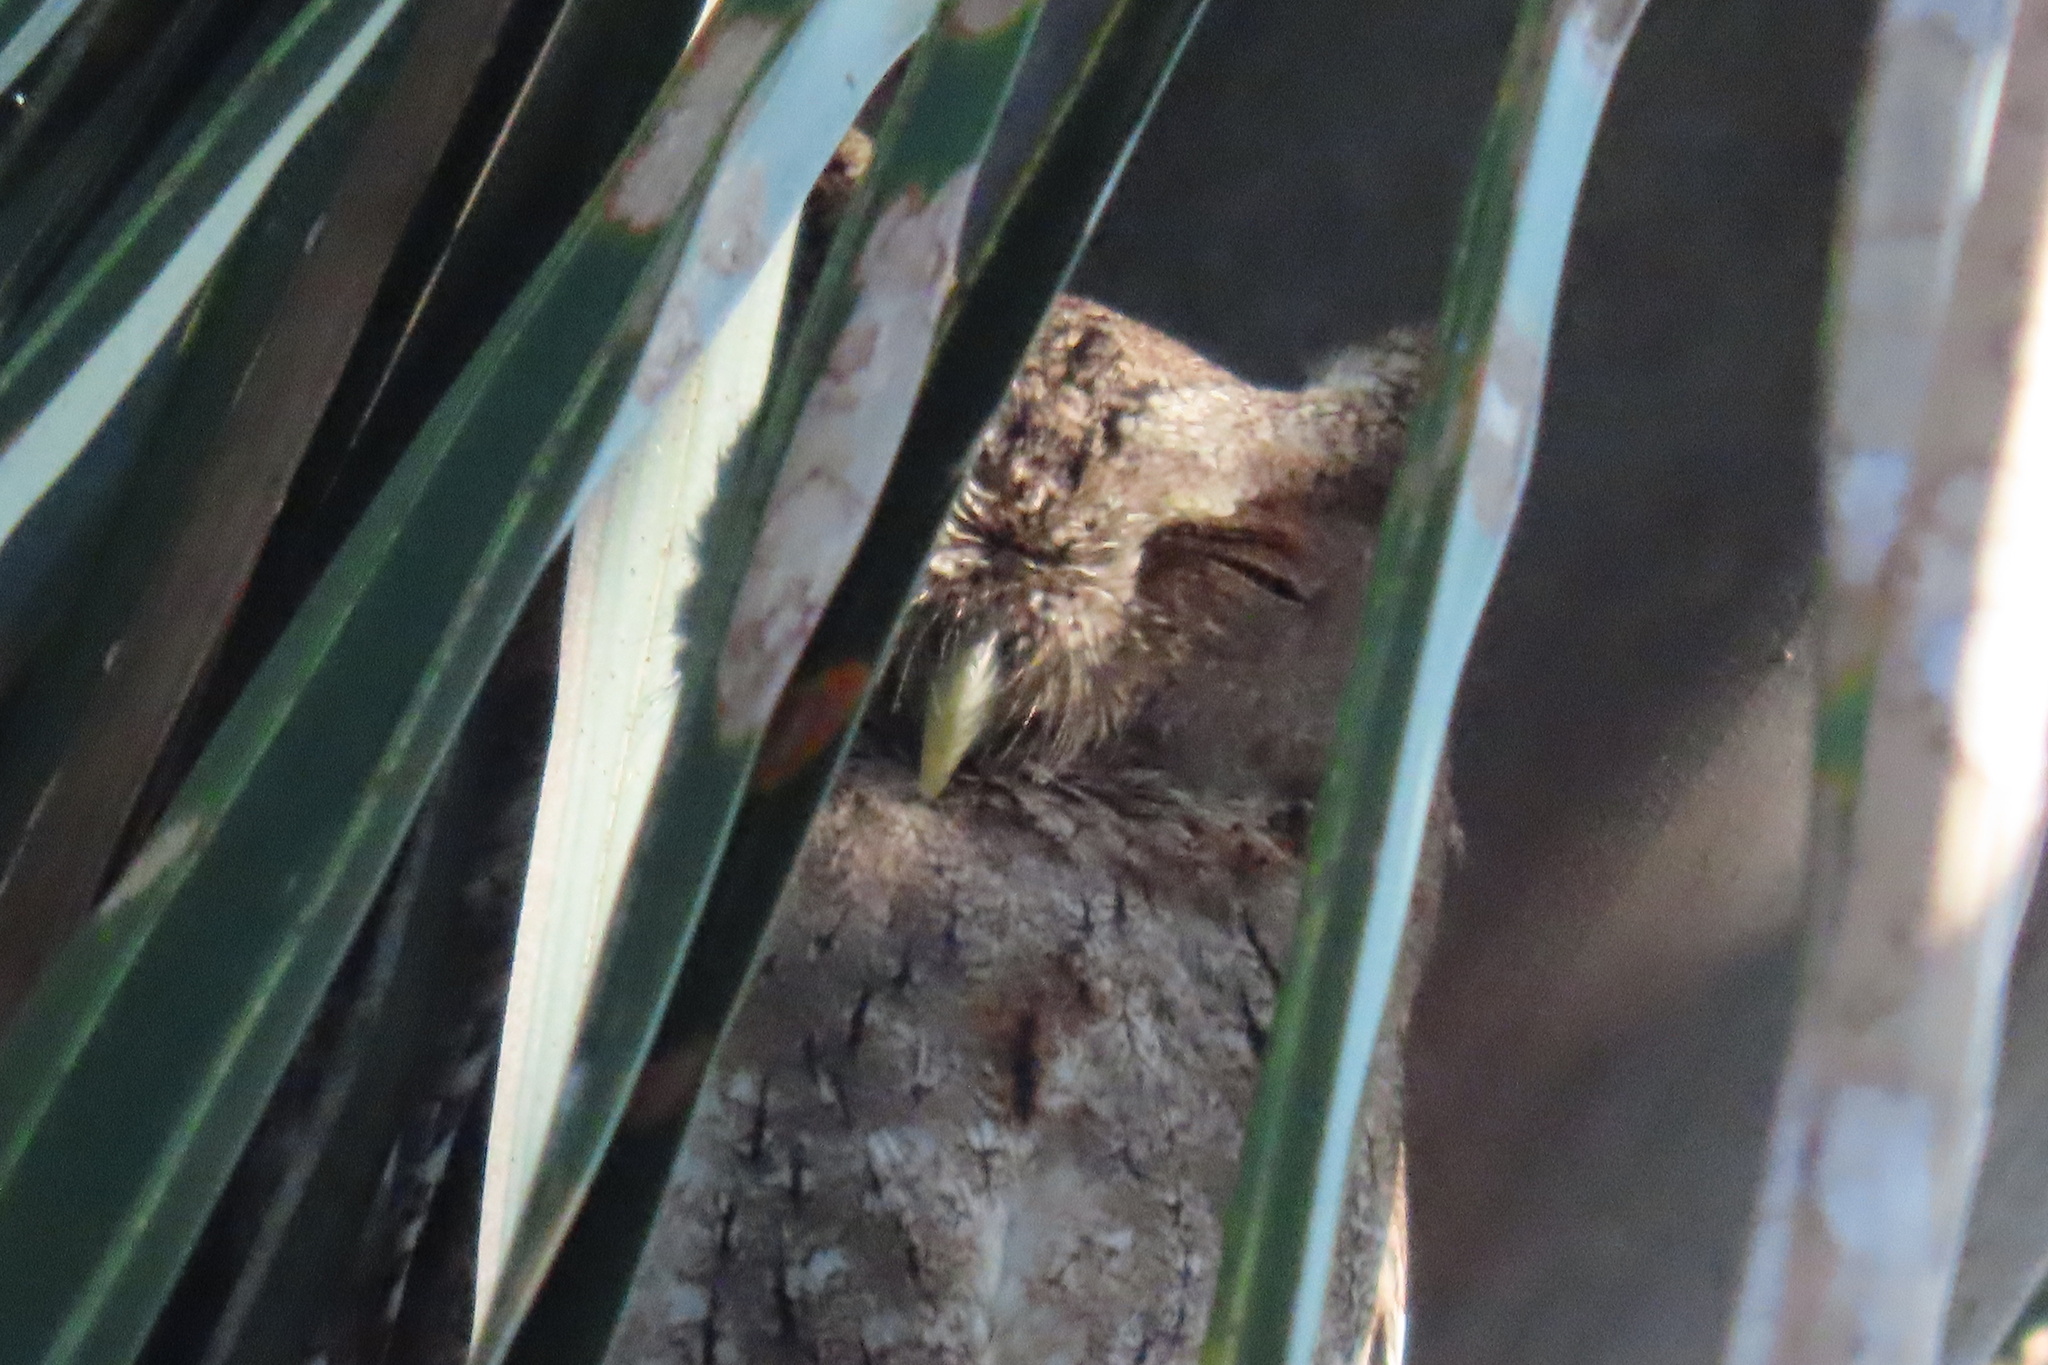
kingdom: Animalia
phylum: Chordata
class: Aves
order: Strigiformes
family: Strigidae
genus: Megascops
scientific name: Megascops cooperi
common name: Pacific screech-owl
